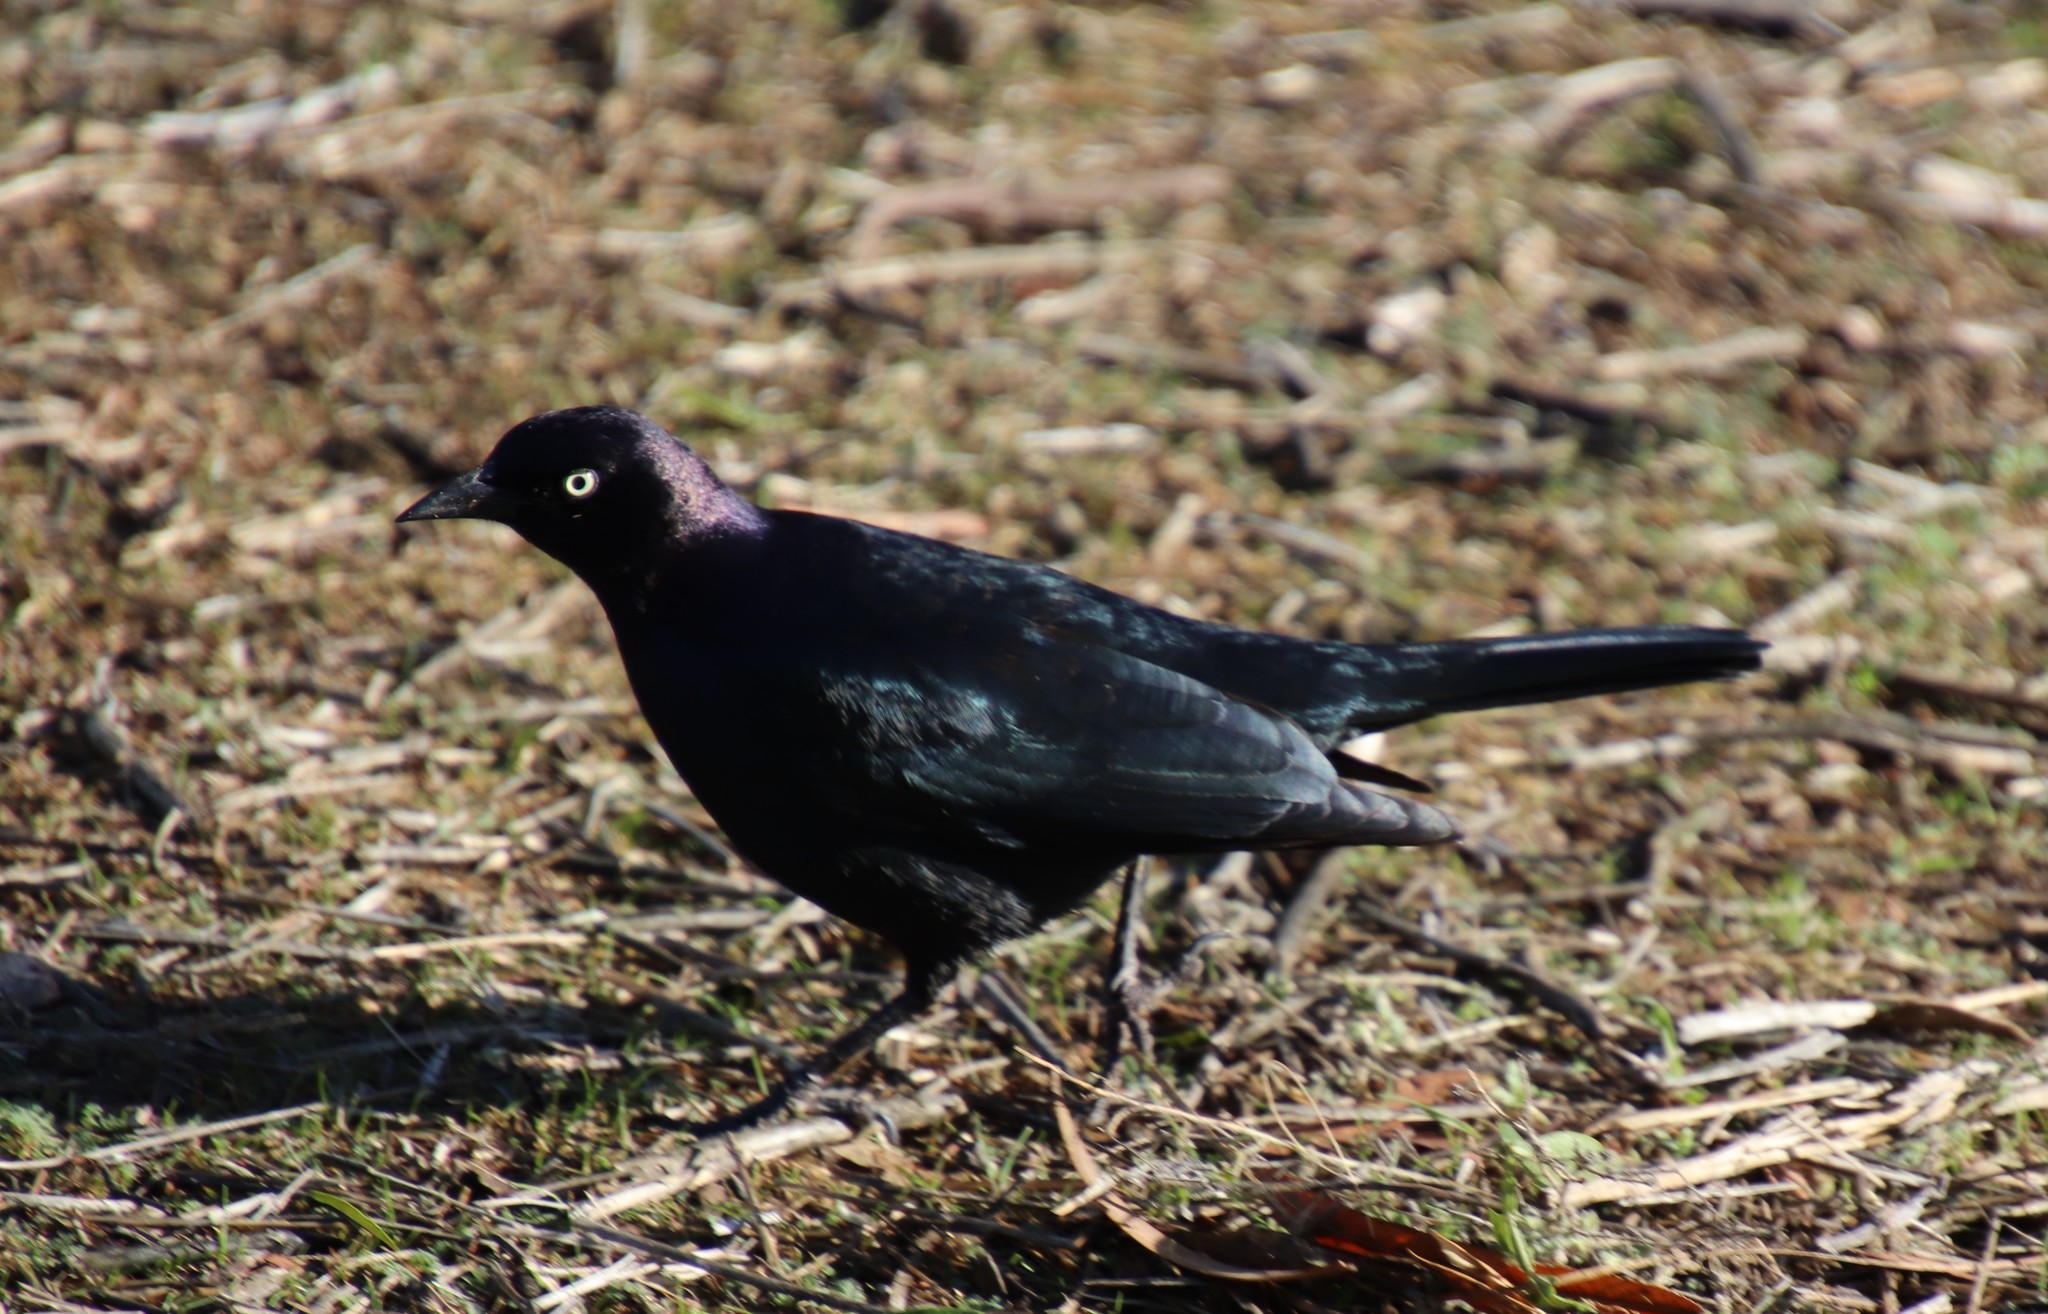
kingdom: Animalia
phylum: Chordata
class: Aves
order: Passeriformes
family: Icteridae
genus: Euphagus
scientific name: Euphagus cyanocephalus
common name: Brewer's blackbird
